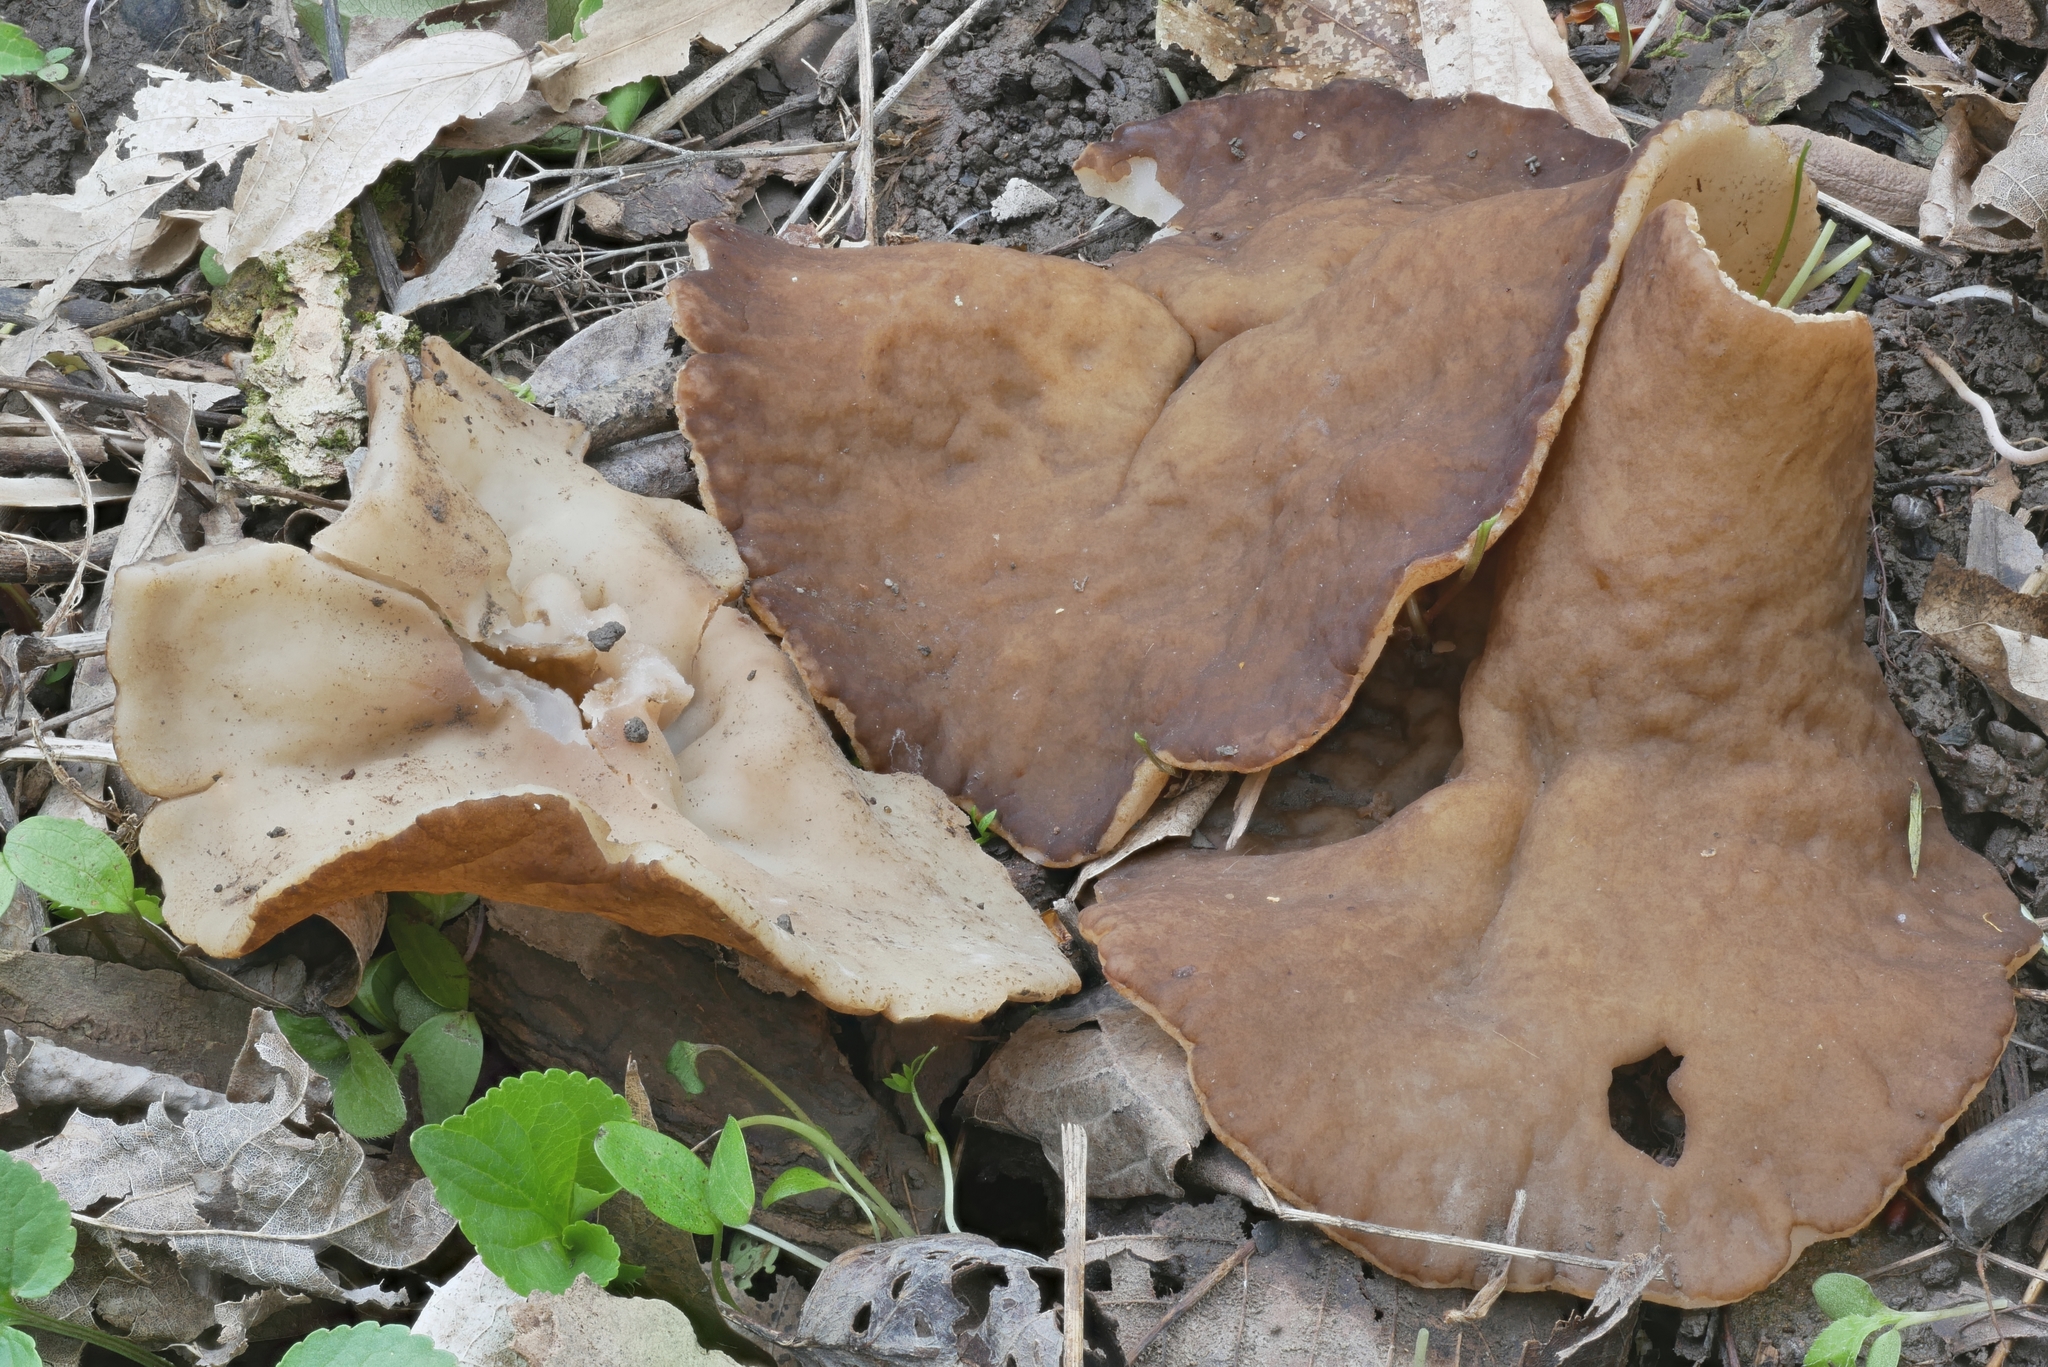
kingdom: Fungi
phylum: Ascomycota
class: Pezizomycetes
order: Pezizales
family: Morchellaceae
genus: Disciotis
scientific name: Disciotis venosa
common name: Bleach cup
